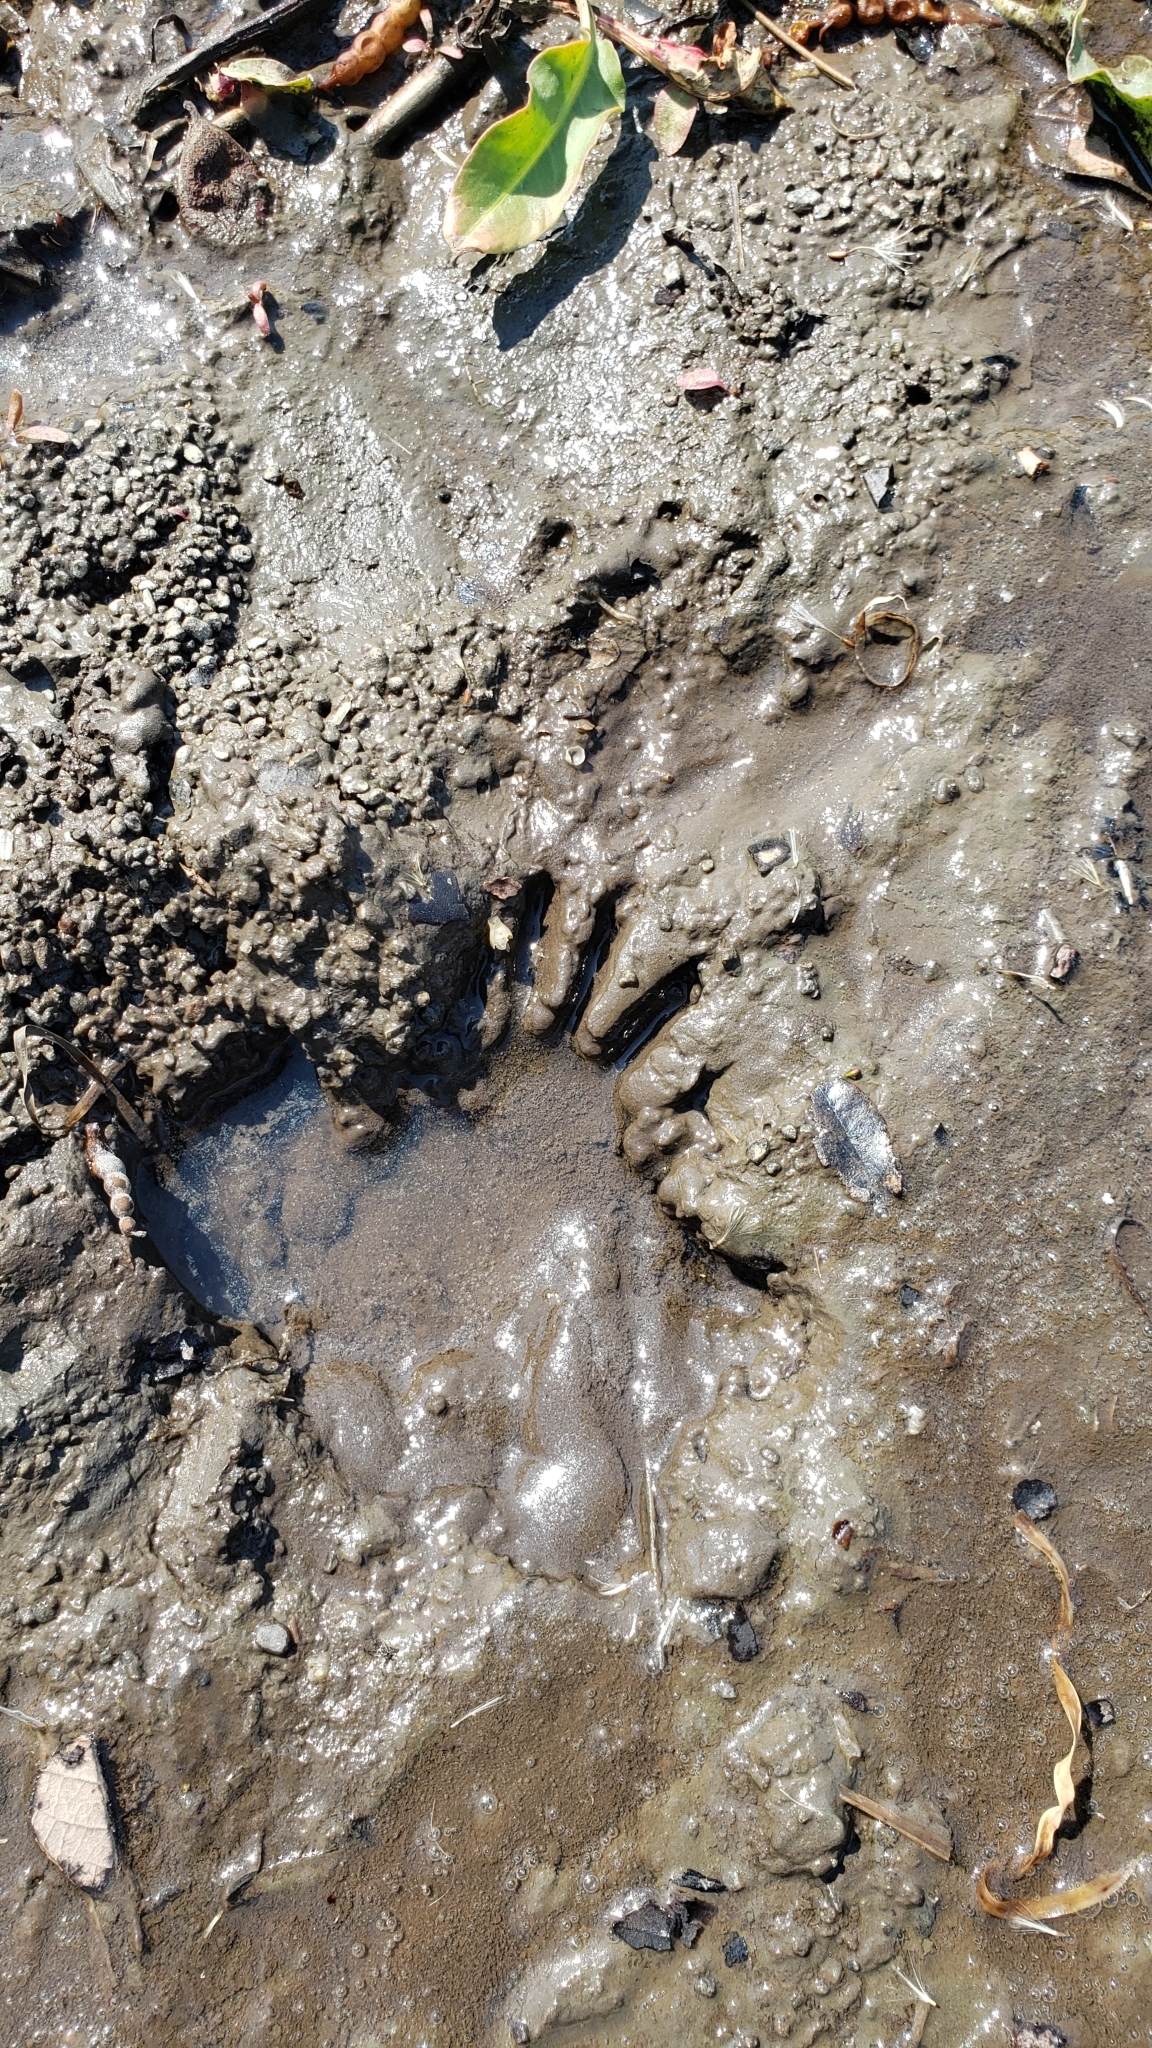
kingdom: Animalia
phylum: Chordata
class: Mammalia
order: Carnivora
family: Procyonidae
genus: Procyon
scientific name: Procyon lotor
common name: Raccoon
